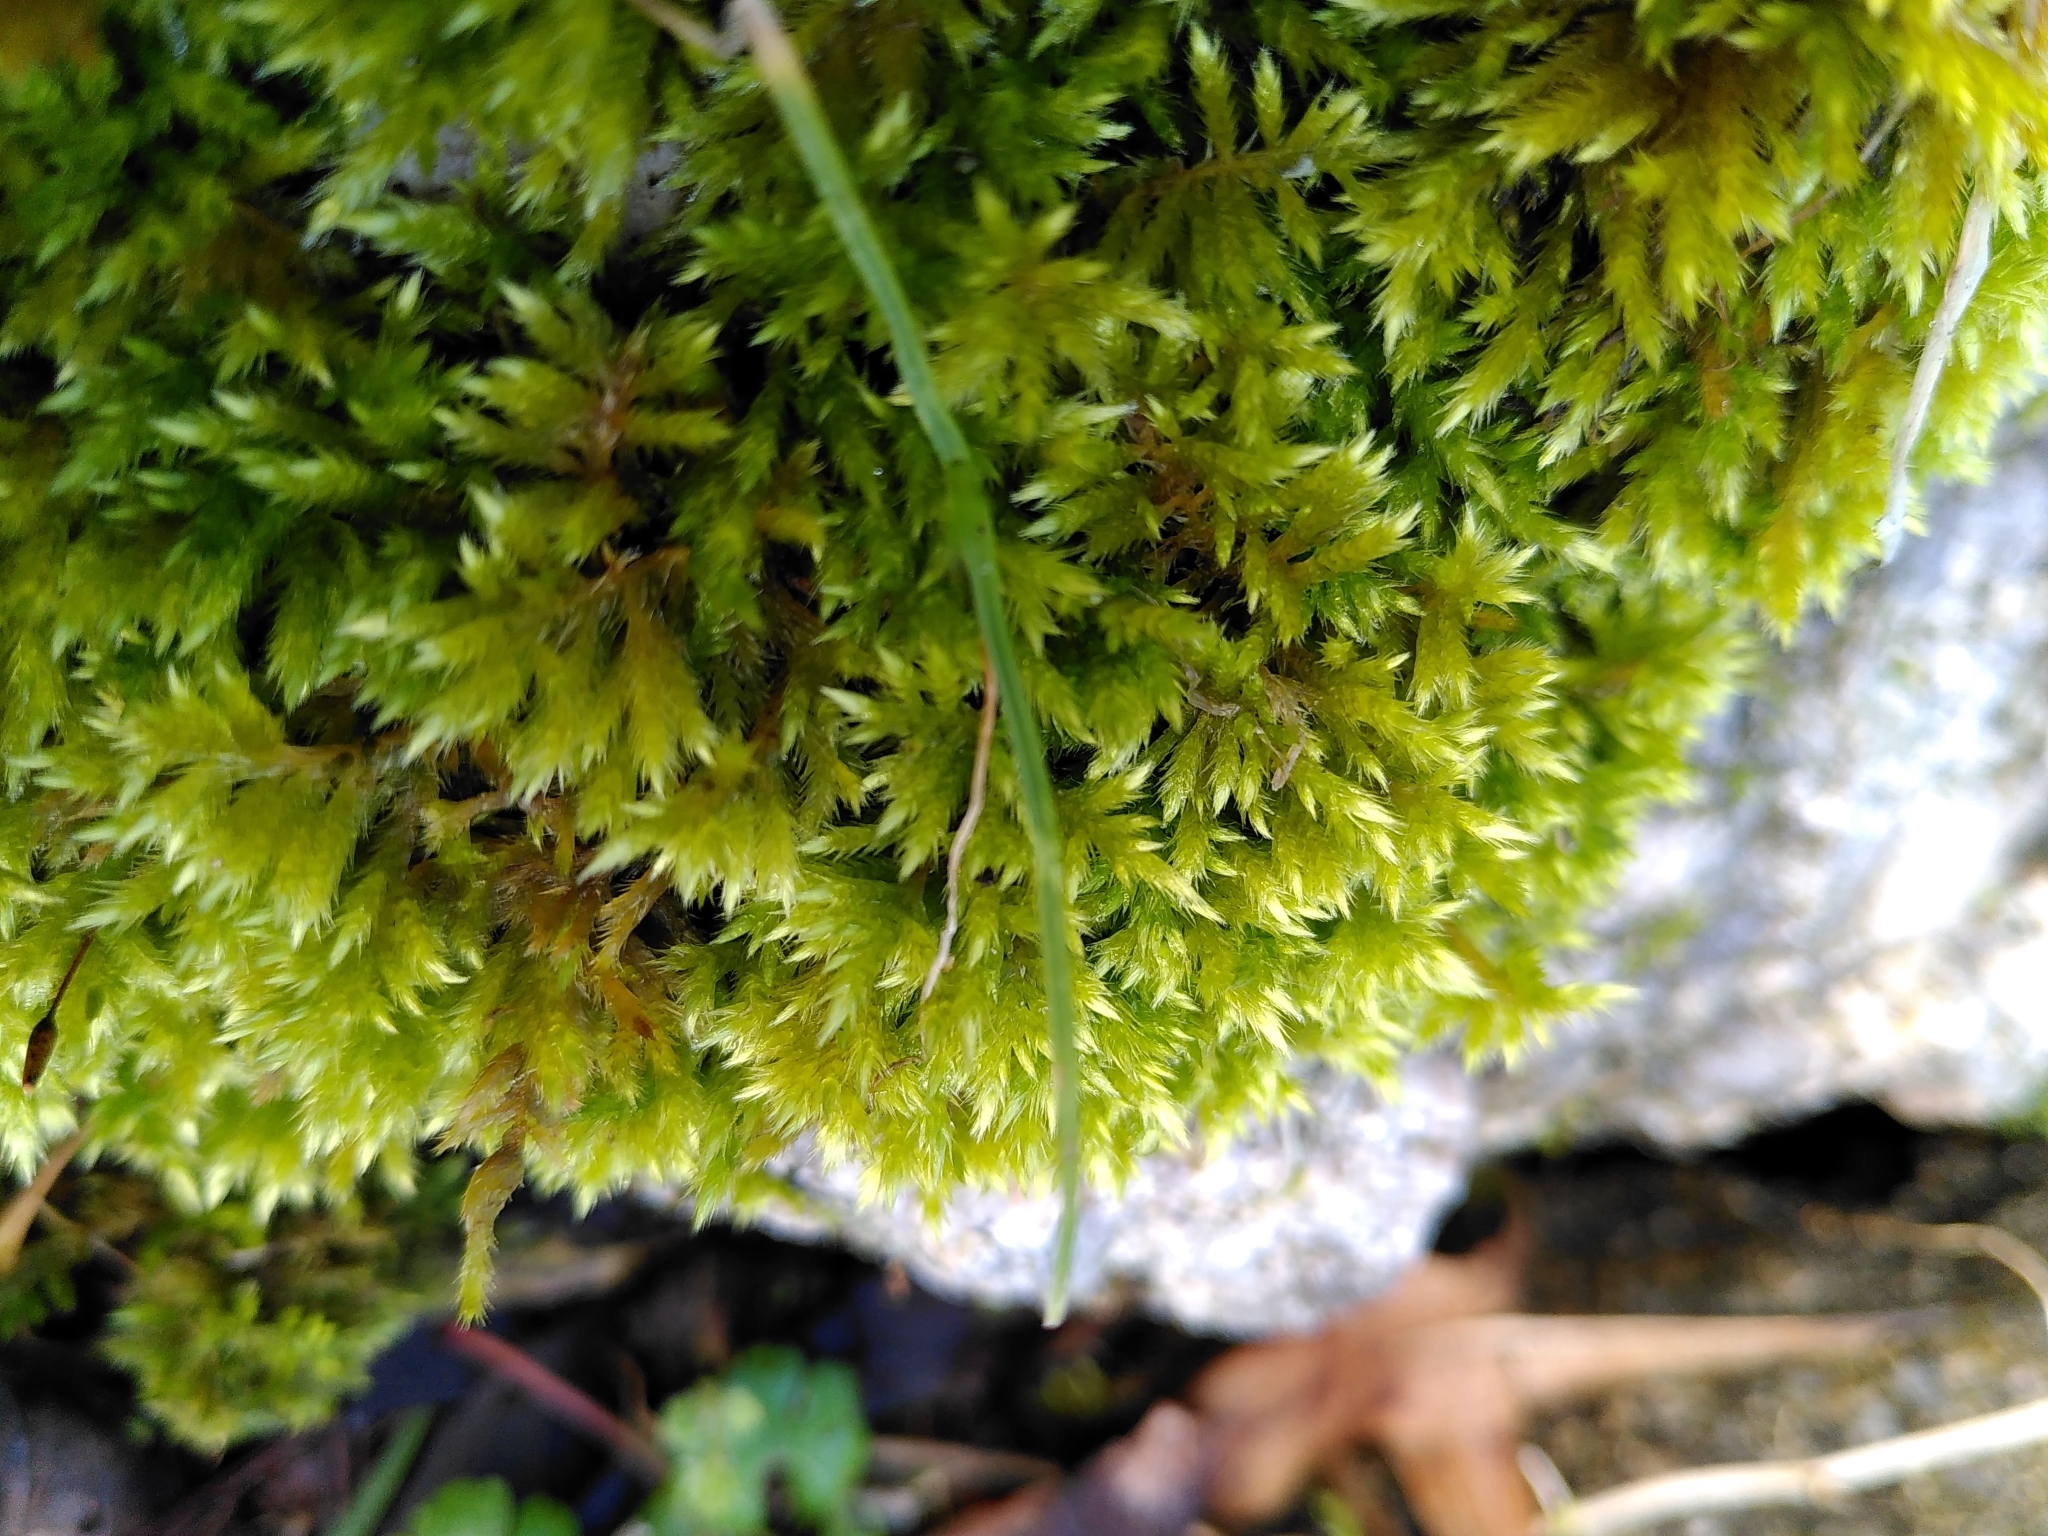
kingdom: Plantae
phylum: Bryophyta
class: Bryopsida
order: Hypnales
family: Brachytheciaceae
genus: Homalothecium
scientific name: Homalothecium sericeum
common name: Silky wall feather-moss
